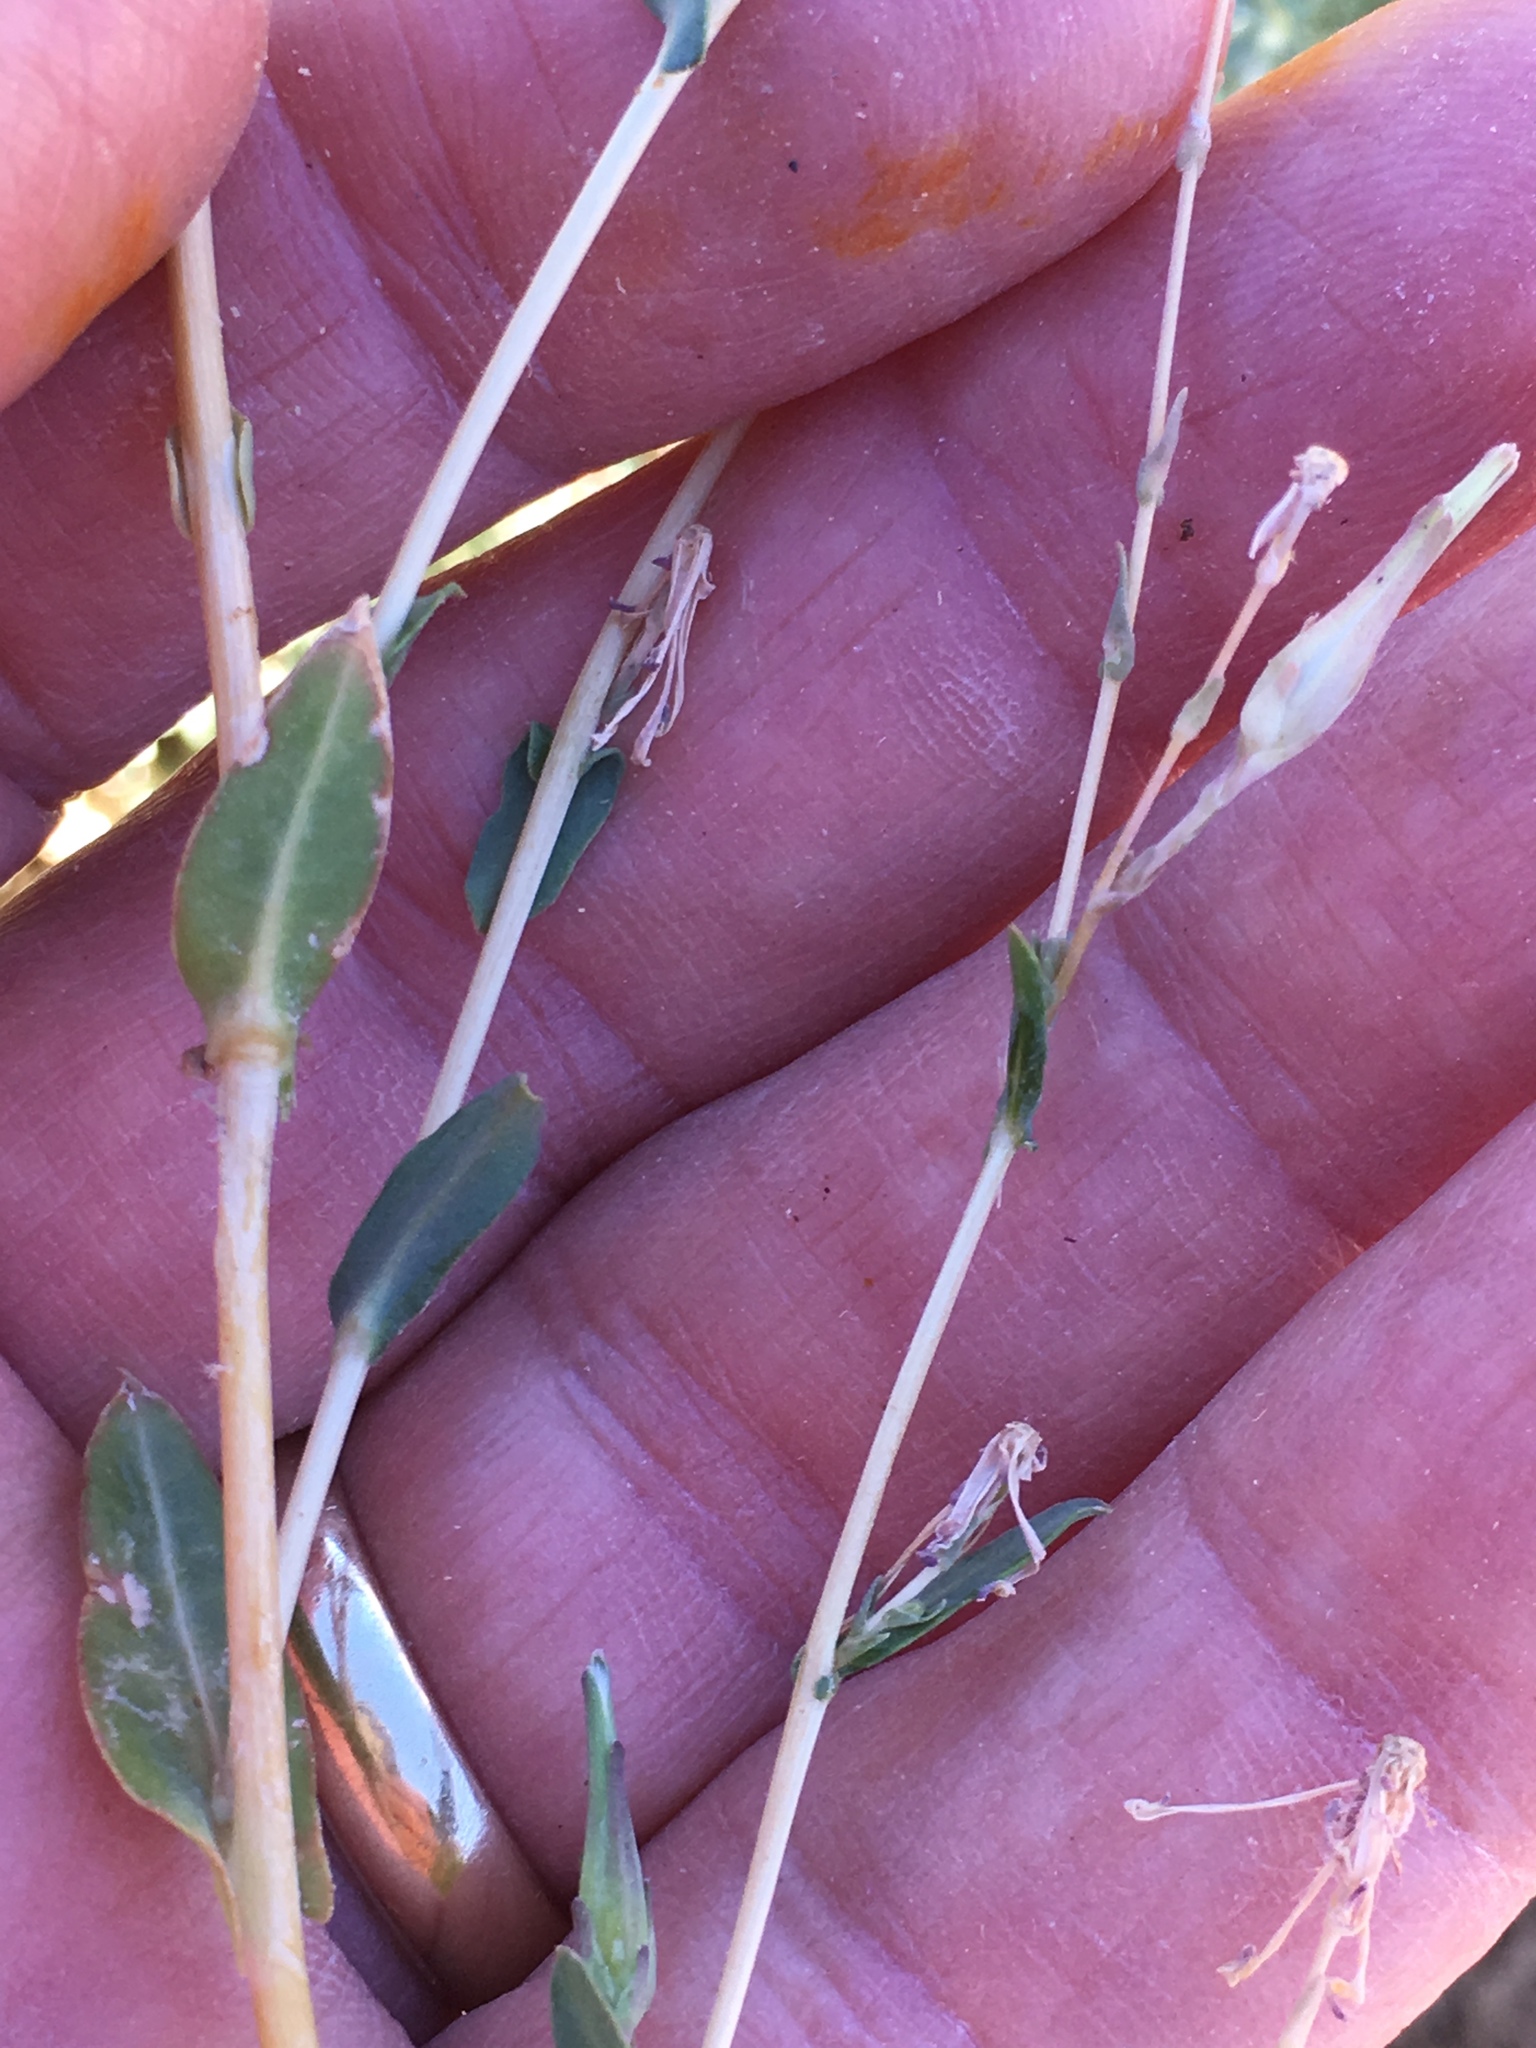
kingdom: Plantae
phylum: Tracheophyta
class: Magnoliopsida
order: Asterales
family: Asteraceae
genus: Lactuca
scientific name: Lactuca serriola
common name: Prickly lettuce
